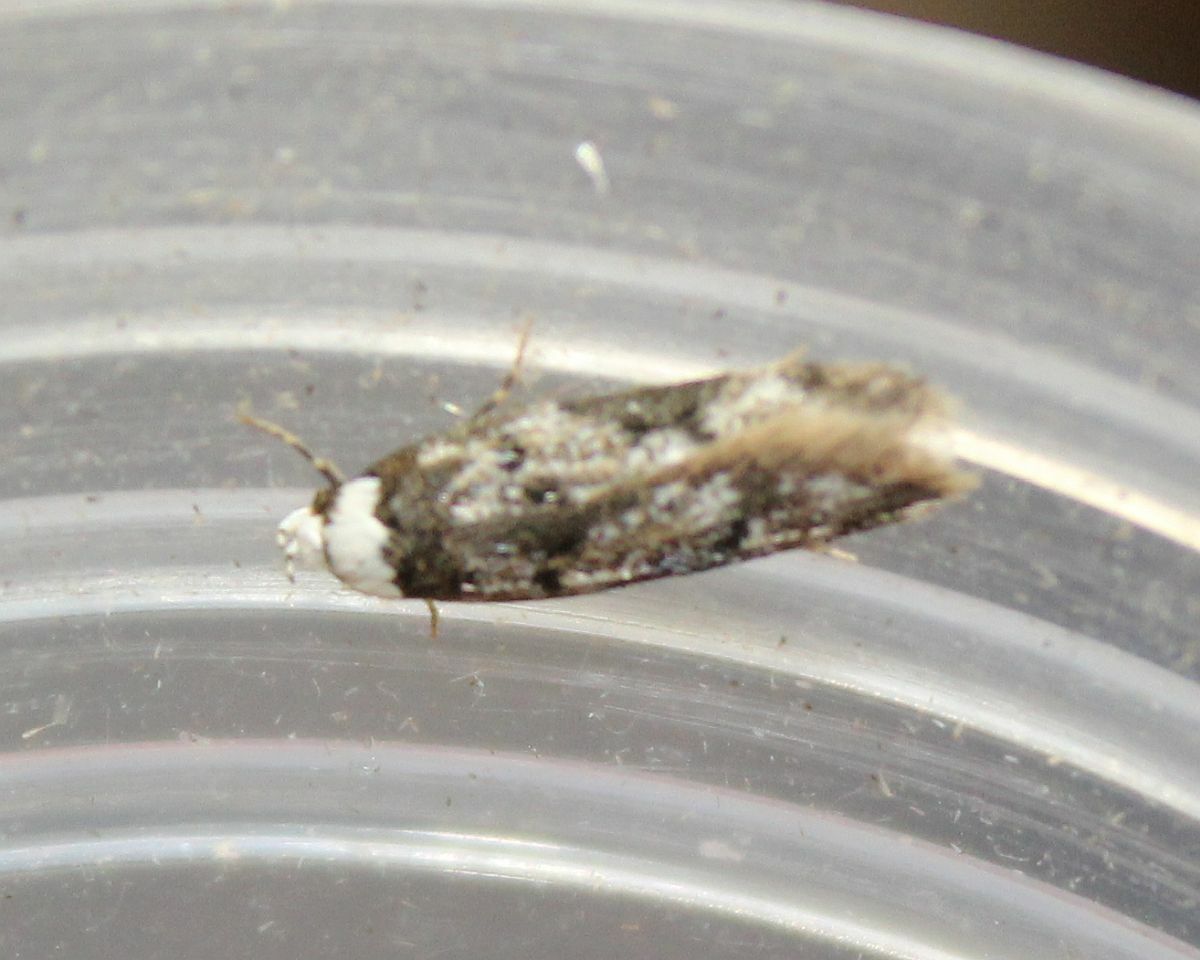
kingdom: Animalia
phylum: Arthropoda
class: Insecta
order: Lepidoptera
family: Oecophoridae
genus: Endrosis
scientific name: Endrosis sarcitrella
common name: White-shouldered house moth
